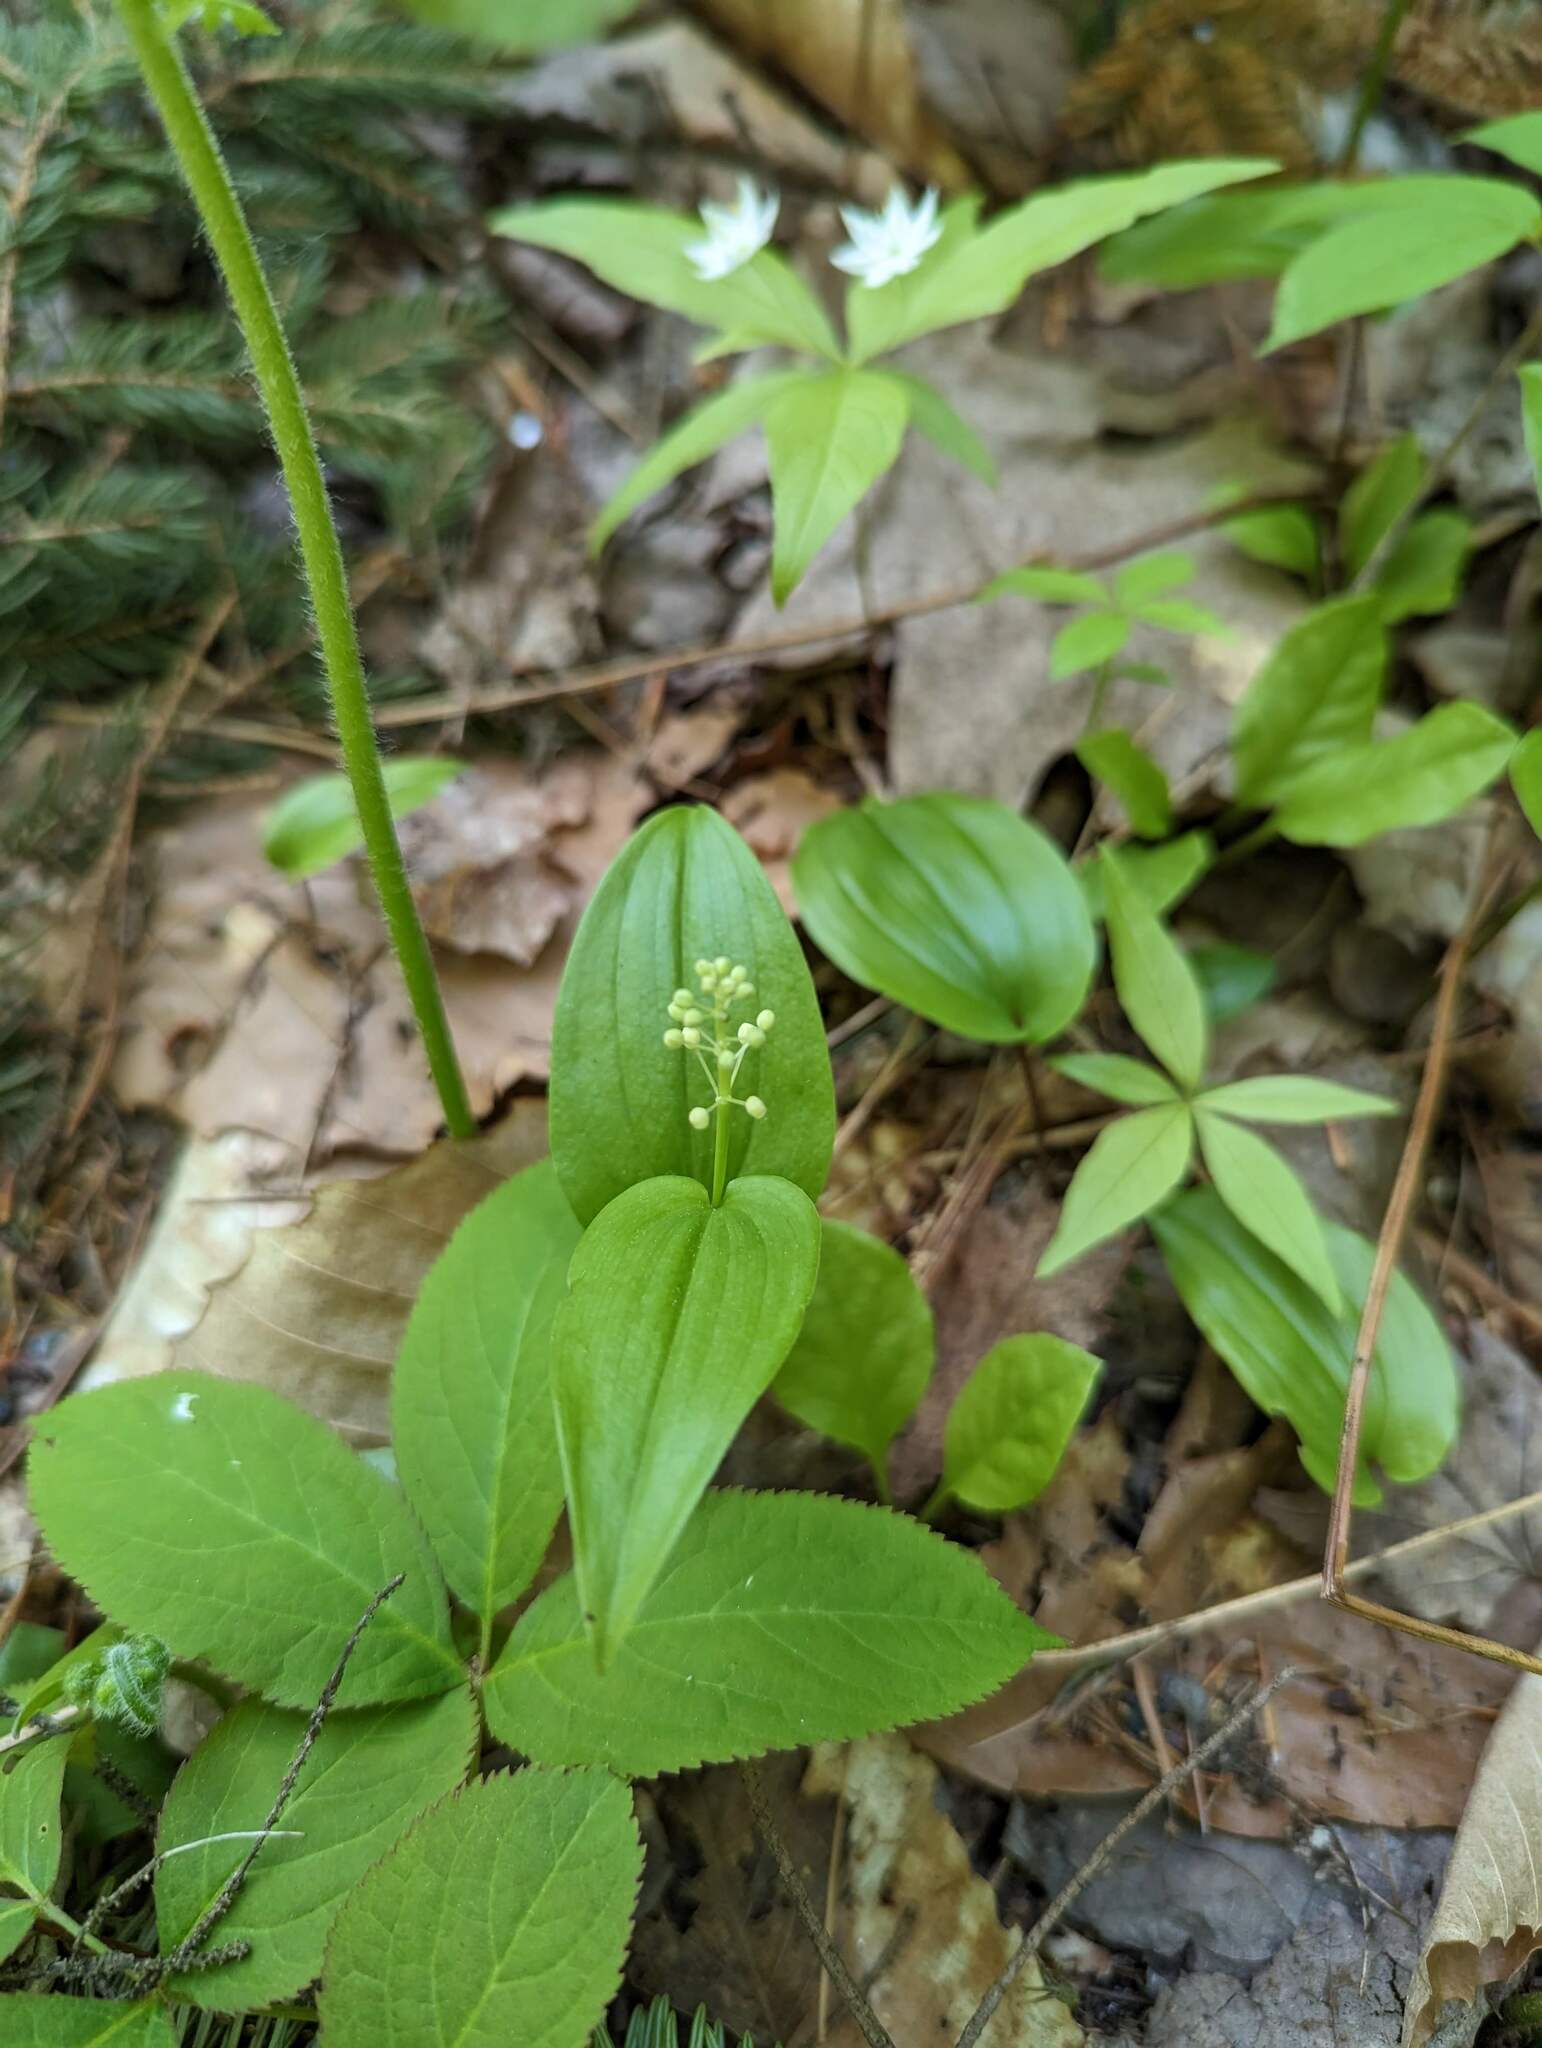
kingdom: Plantae
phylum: Tracheophyta
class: Liliopsida
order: Asparagales
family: Asparagaceae
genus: Maianthemum
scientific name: Maianthemum canadense
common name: False lily-of-the-valley
